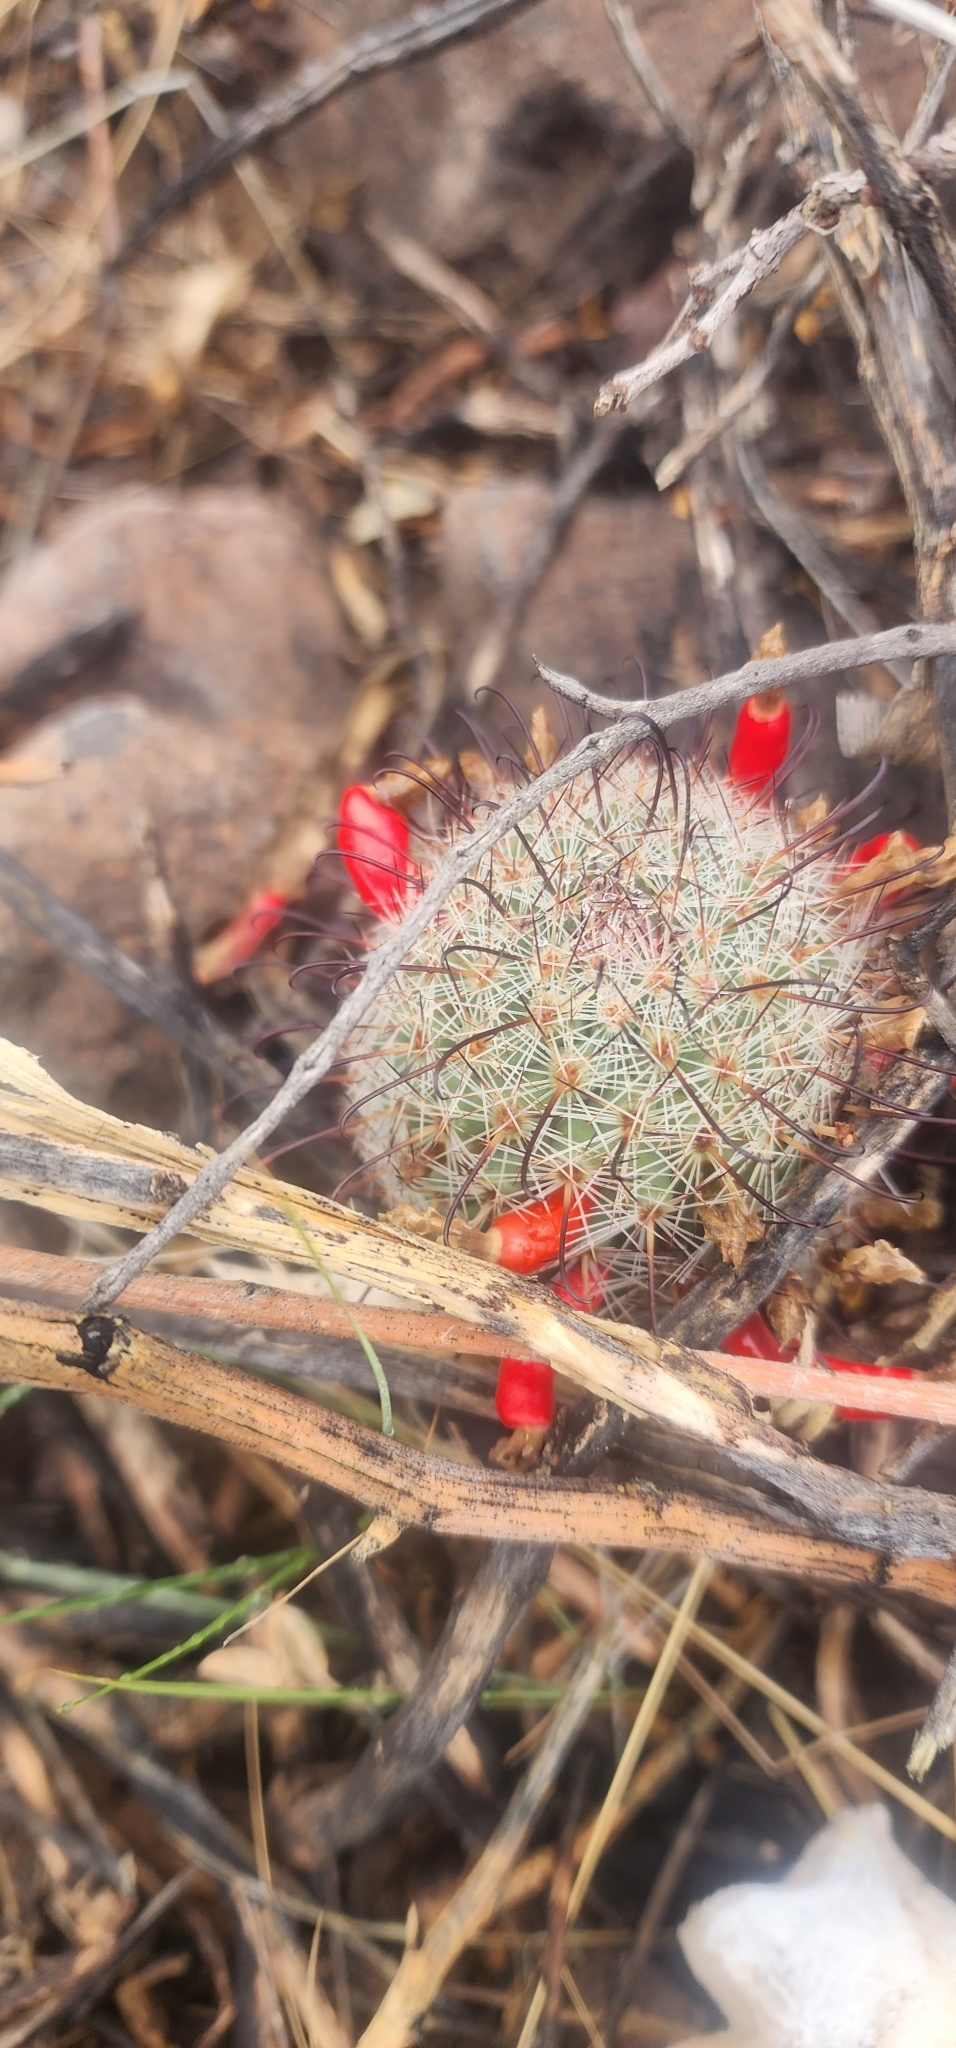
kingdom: Plantae
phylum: Tracheophyta
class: Magnoliopsida
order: Caryophyllales
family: Cactaceae
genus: Cochemiea
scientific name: Cochemiea grahamii
